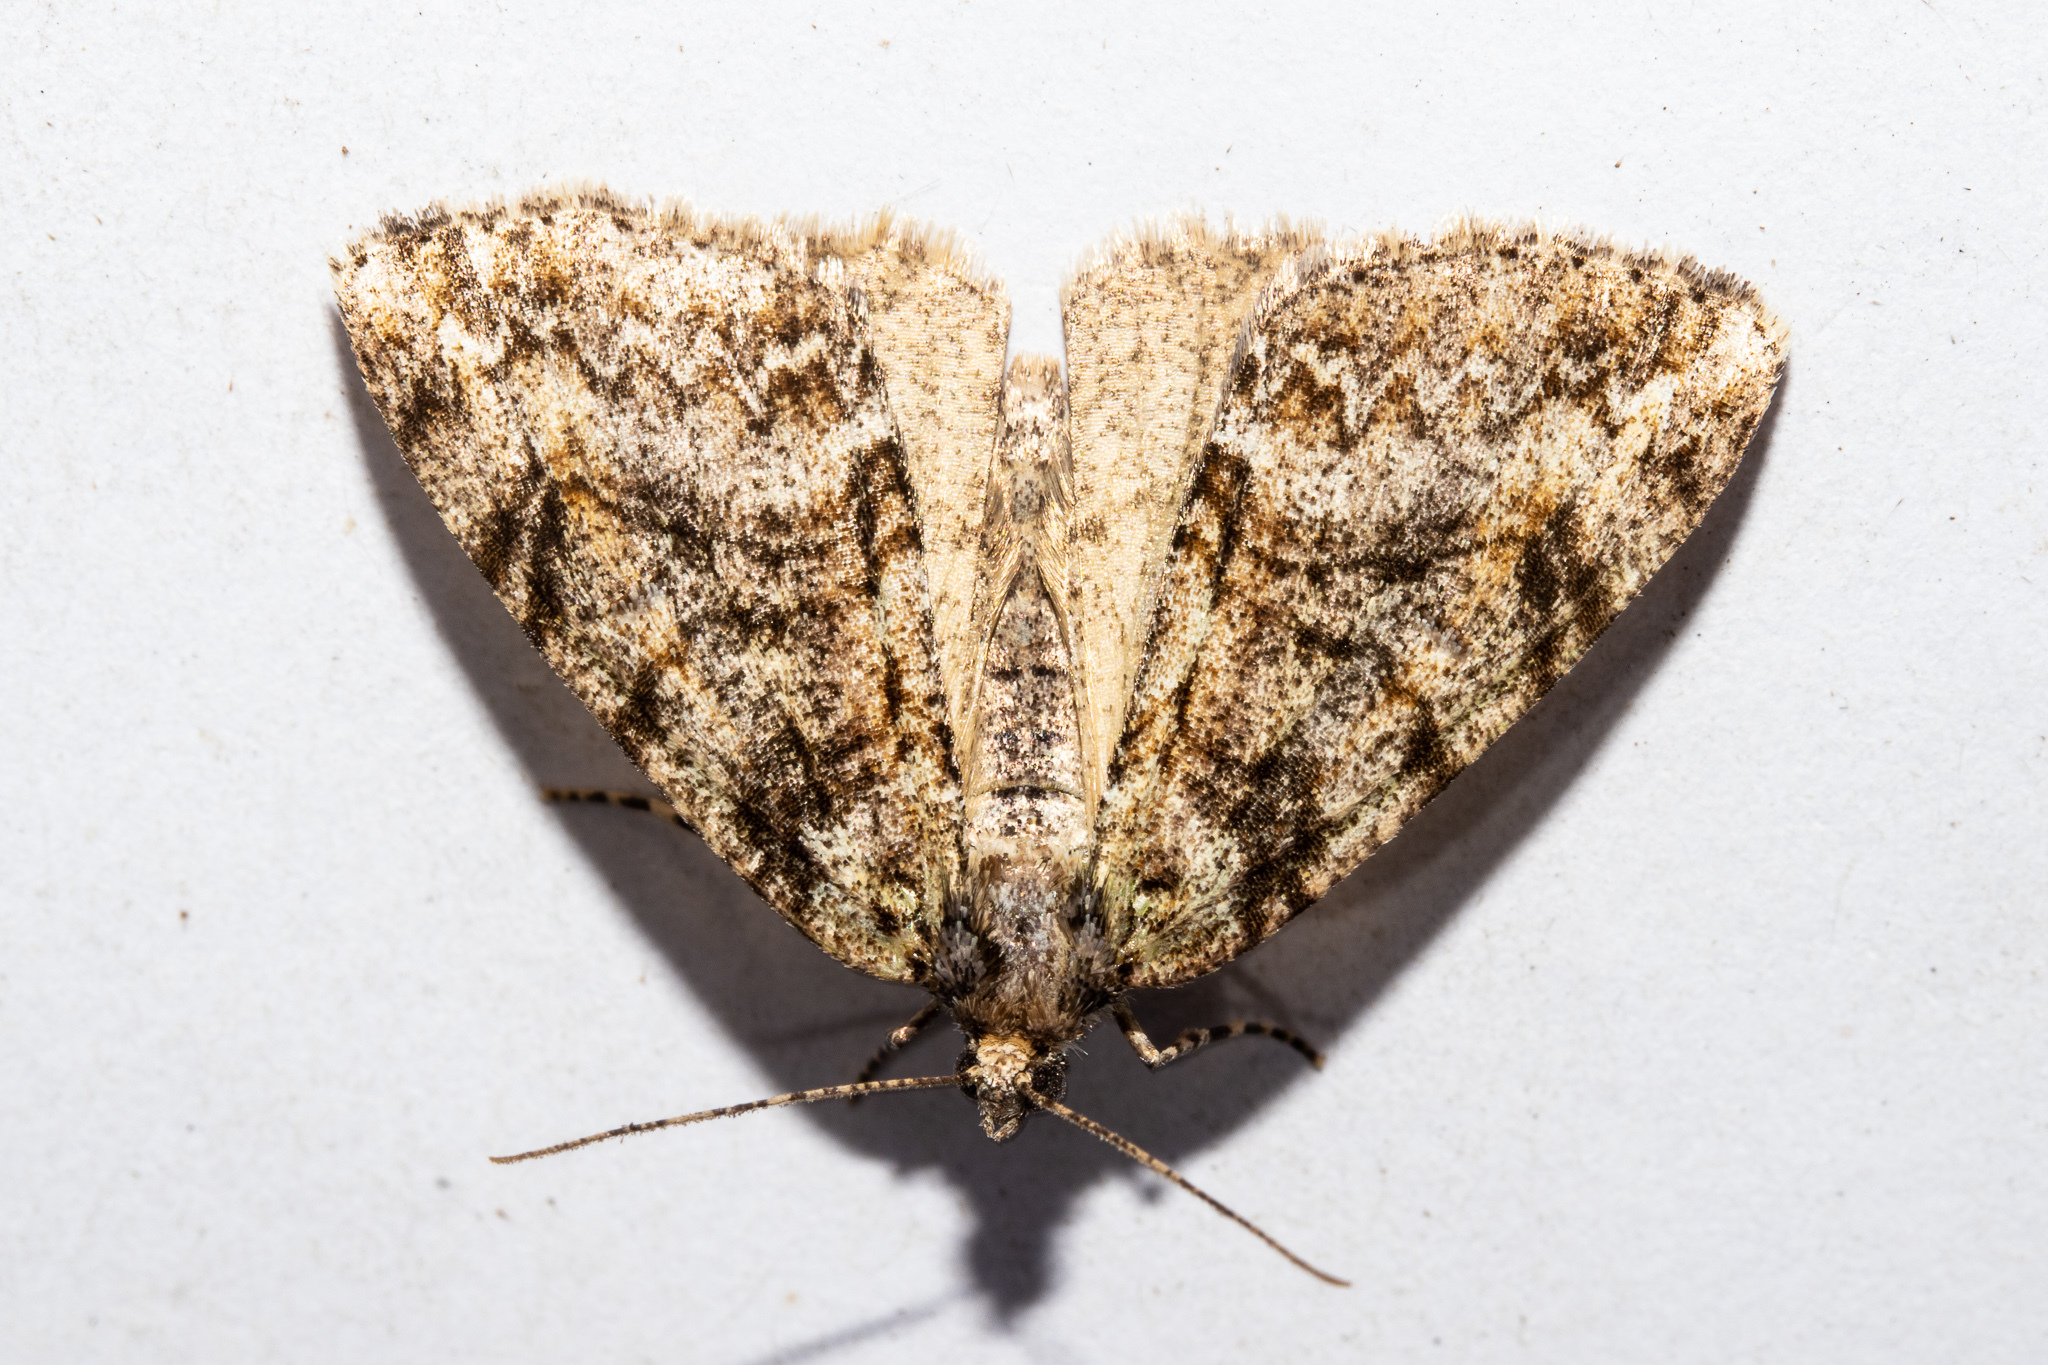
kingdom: Animalia
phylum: Arthropoda
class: Insecta
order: Lepidoptera
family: Geometridae
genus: Pseudocoremia
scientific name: Pseudocoremia suavis
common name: Common forest looper
